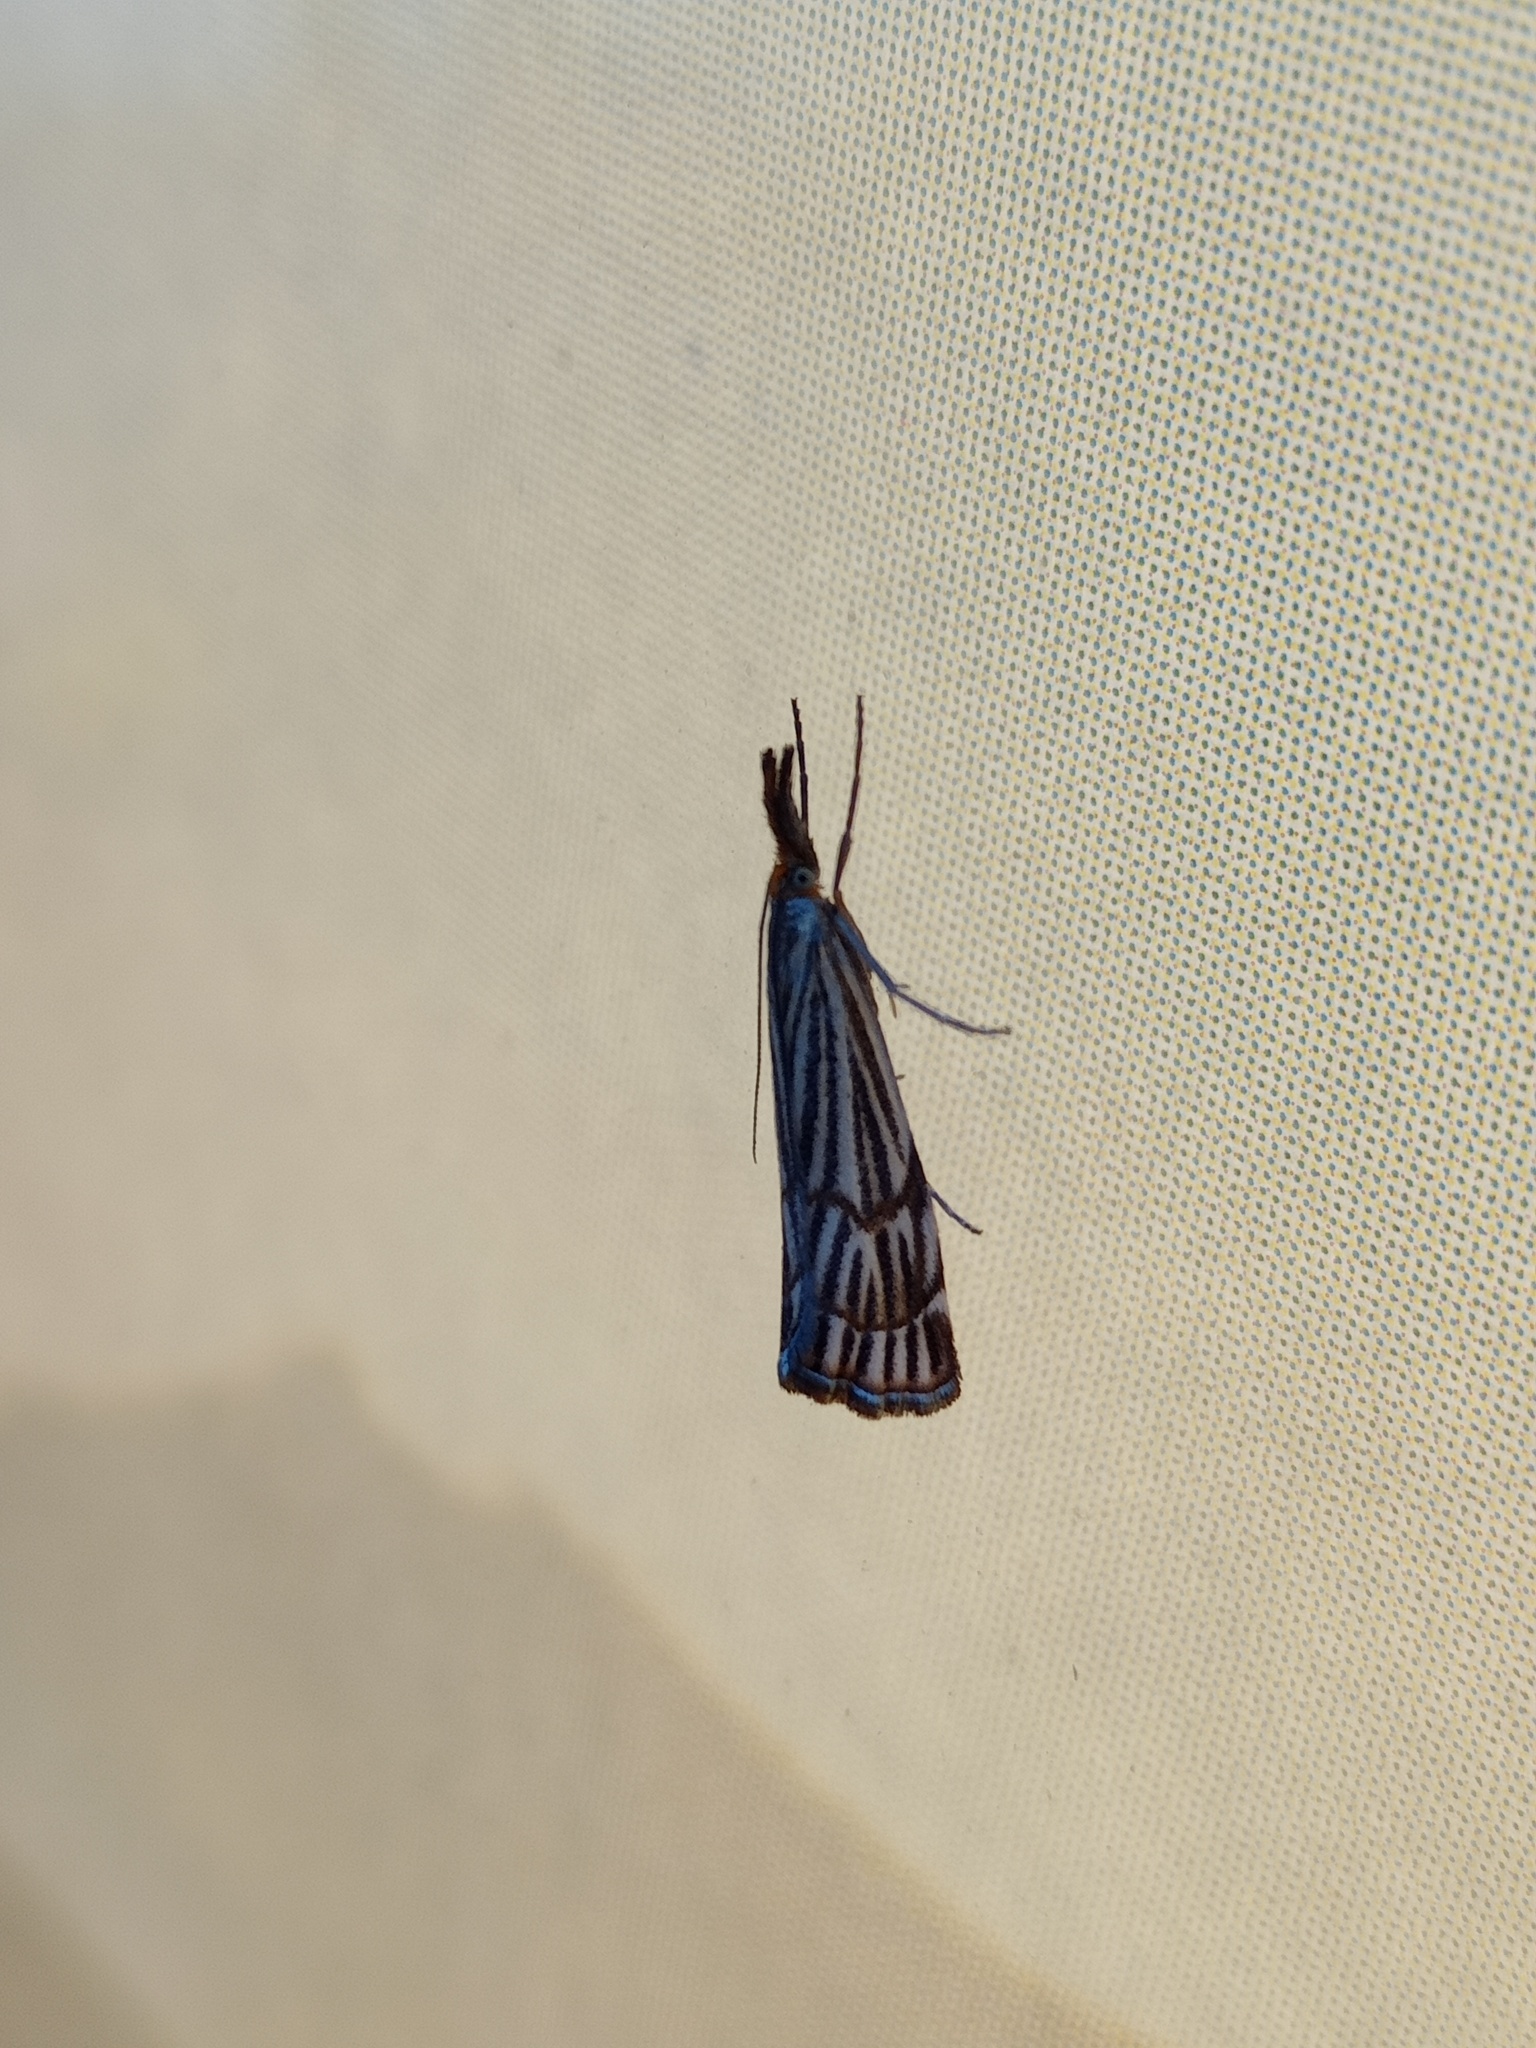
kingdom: Animalia
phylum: Arthropoda
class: Insecta
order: Lepidoptera
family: Crambidae
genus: Chrysocrambus
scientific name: Chrysocrambus Chrysocramboides craterellus
